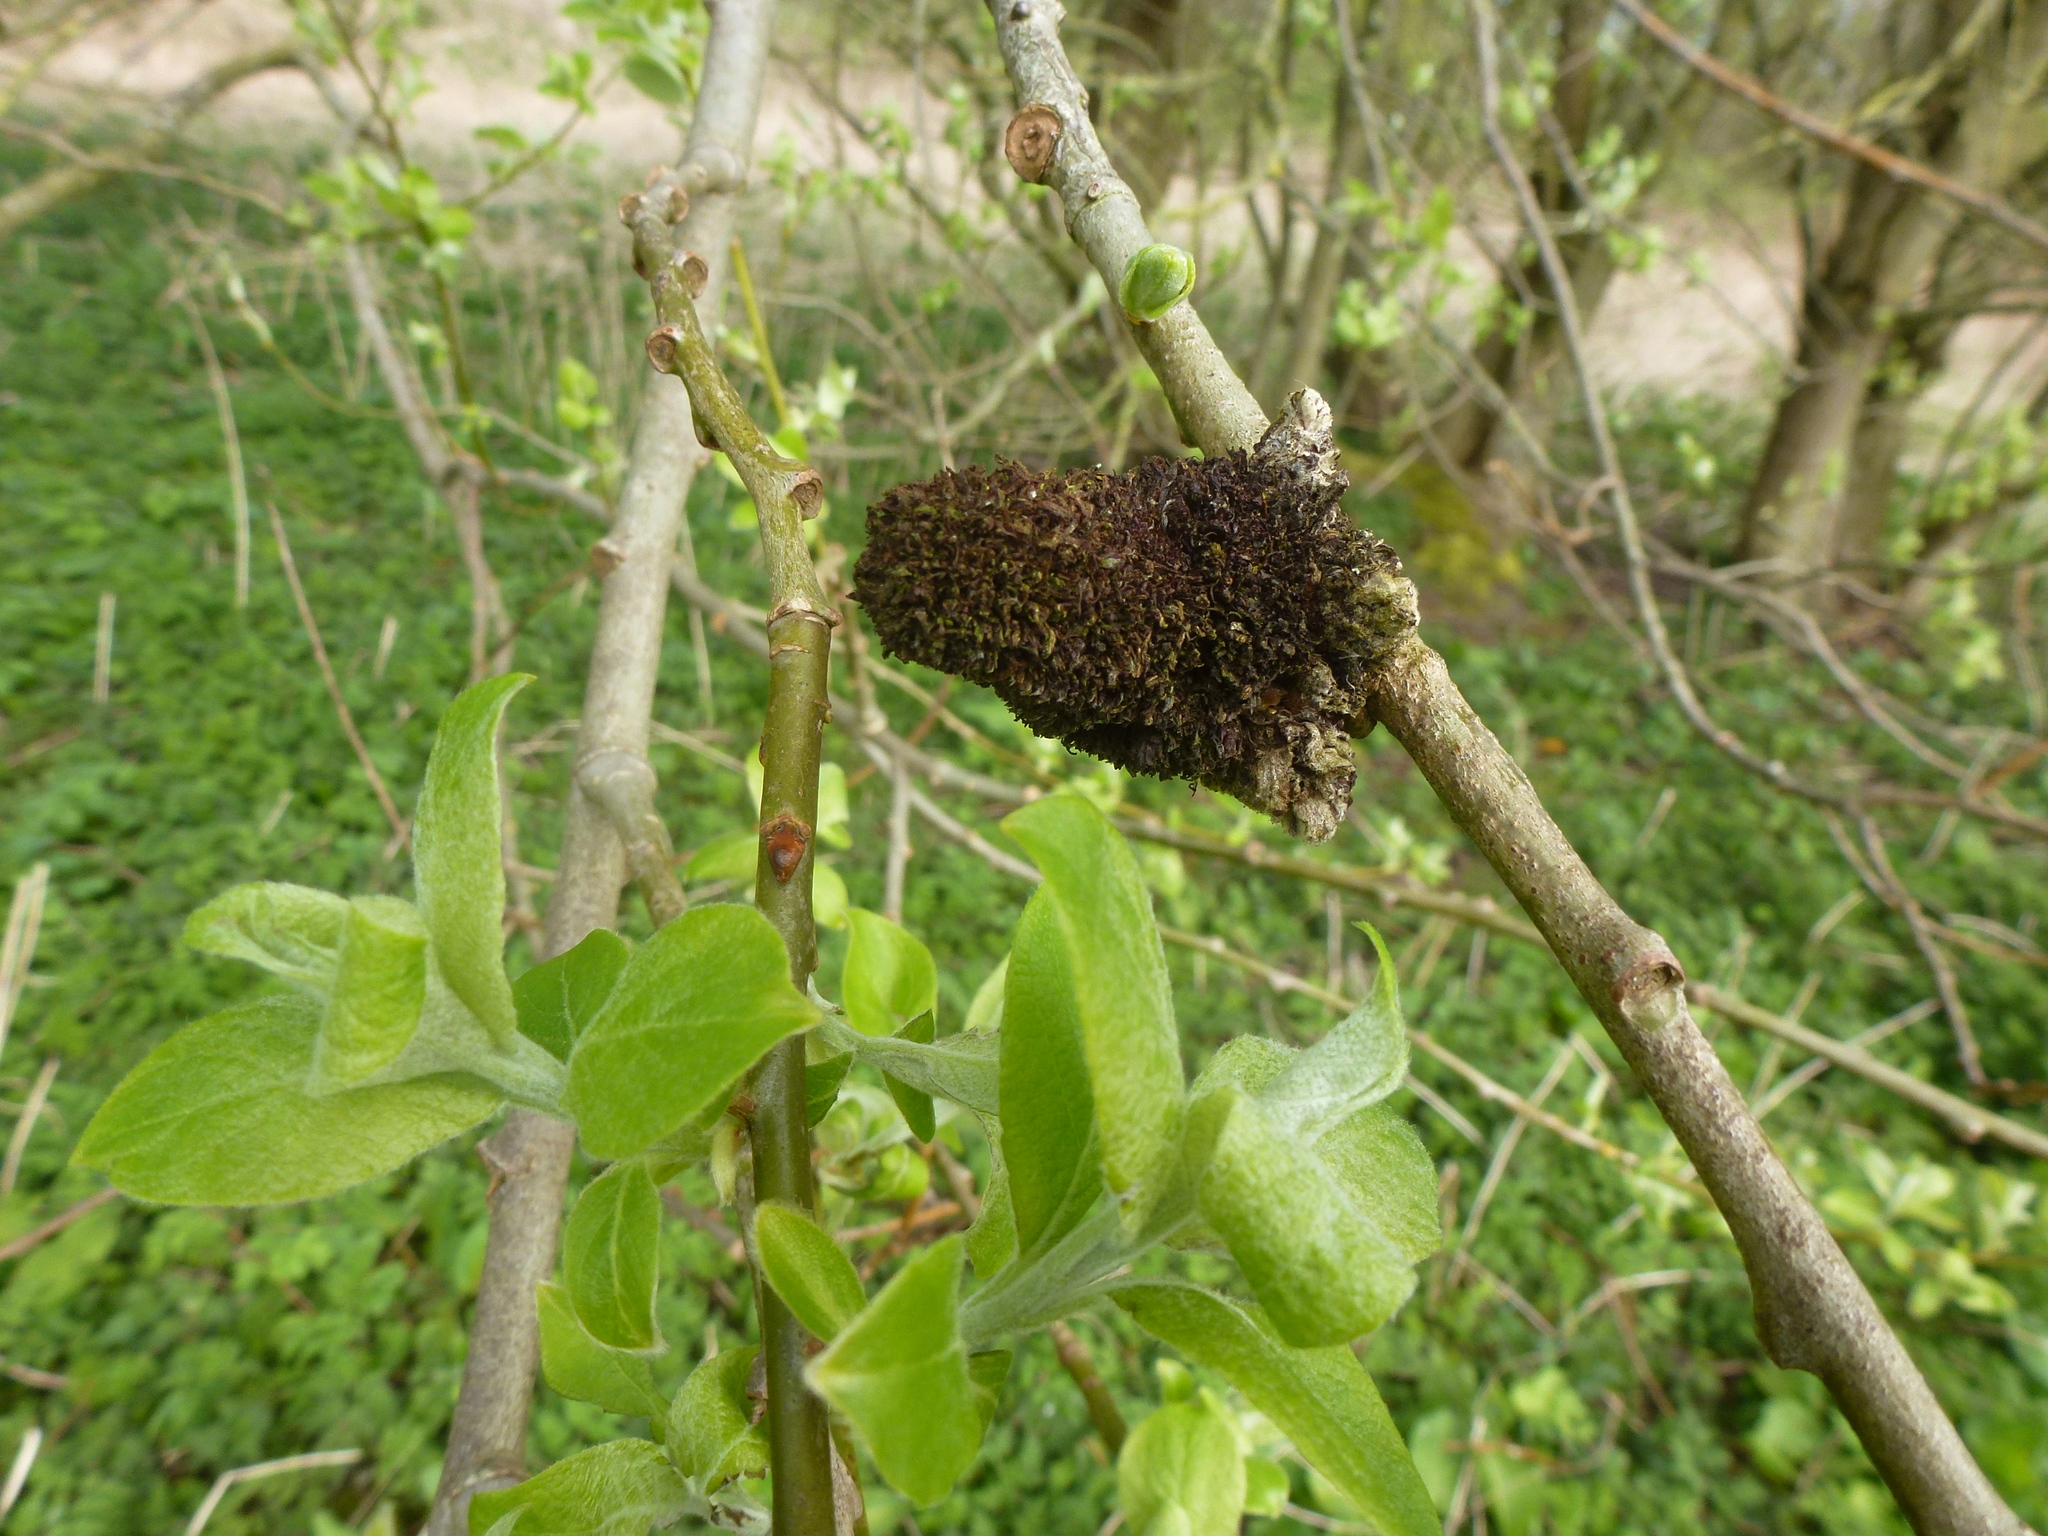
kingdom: Animalia
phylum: Arthropoda
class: Arachnida
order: Trombidiformes
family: Eriophyidae
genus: Stenacis
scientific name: Stenacis triradiatus
